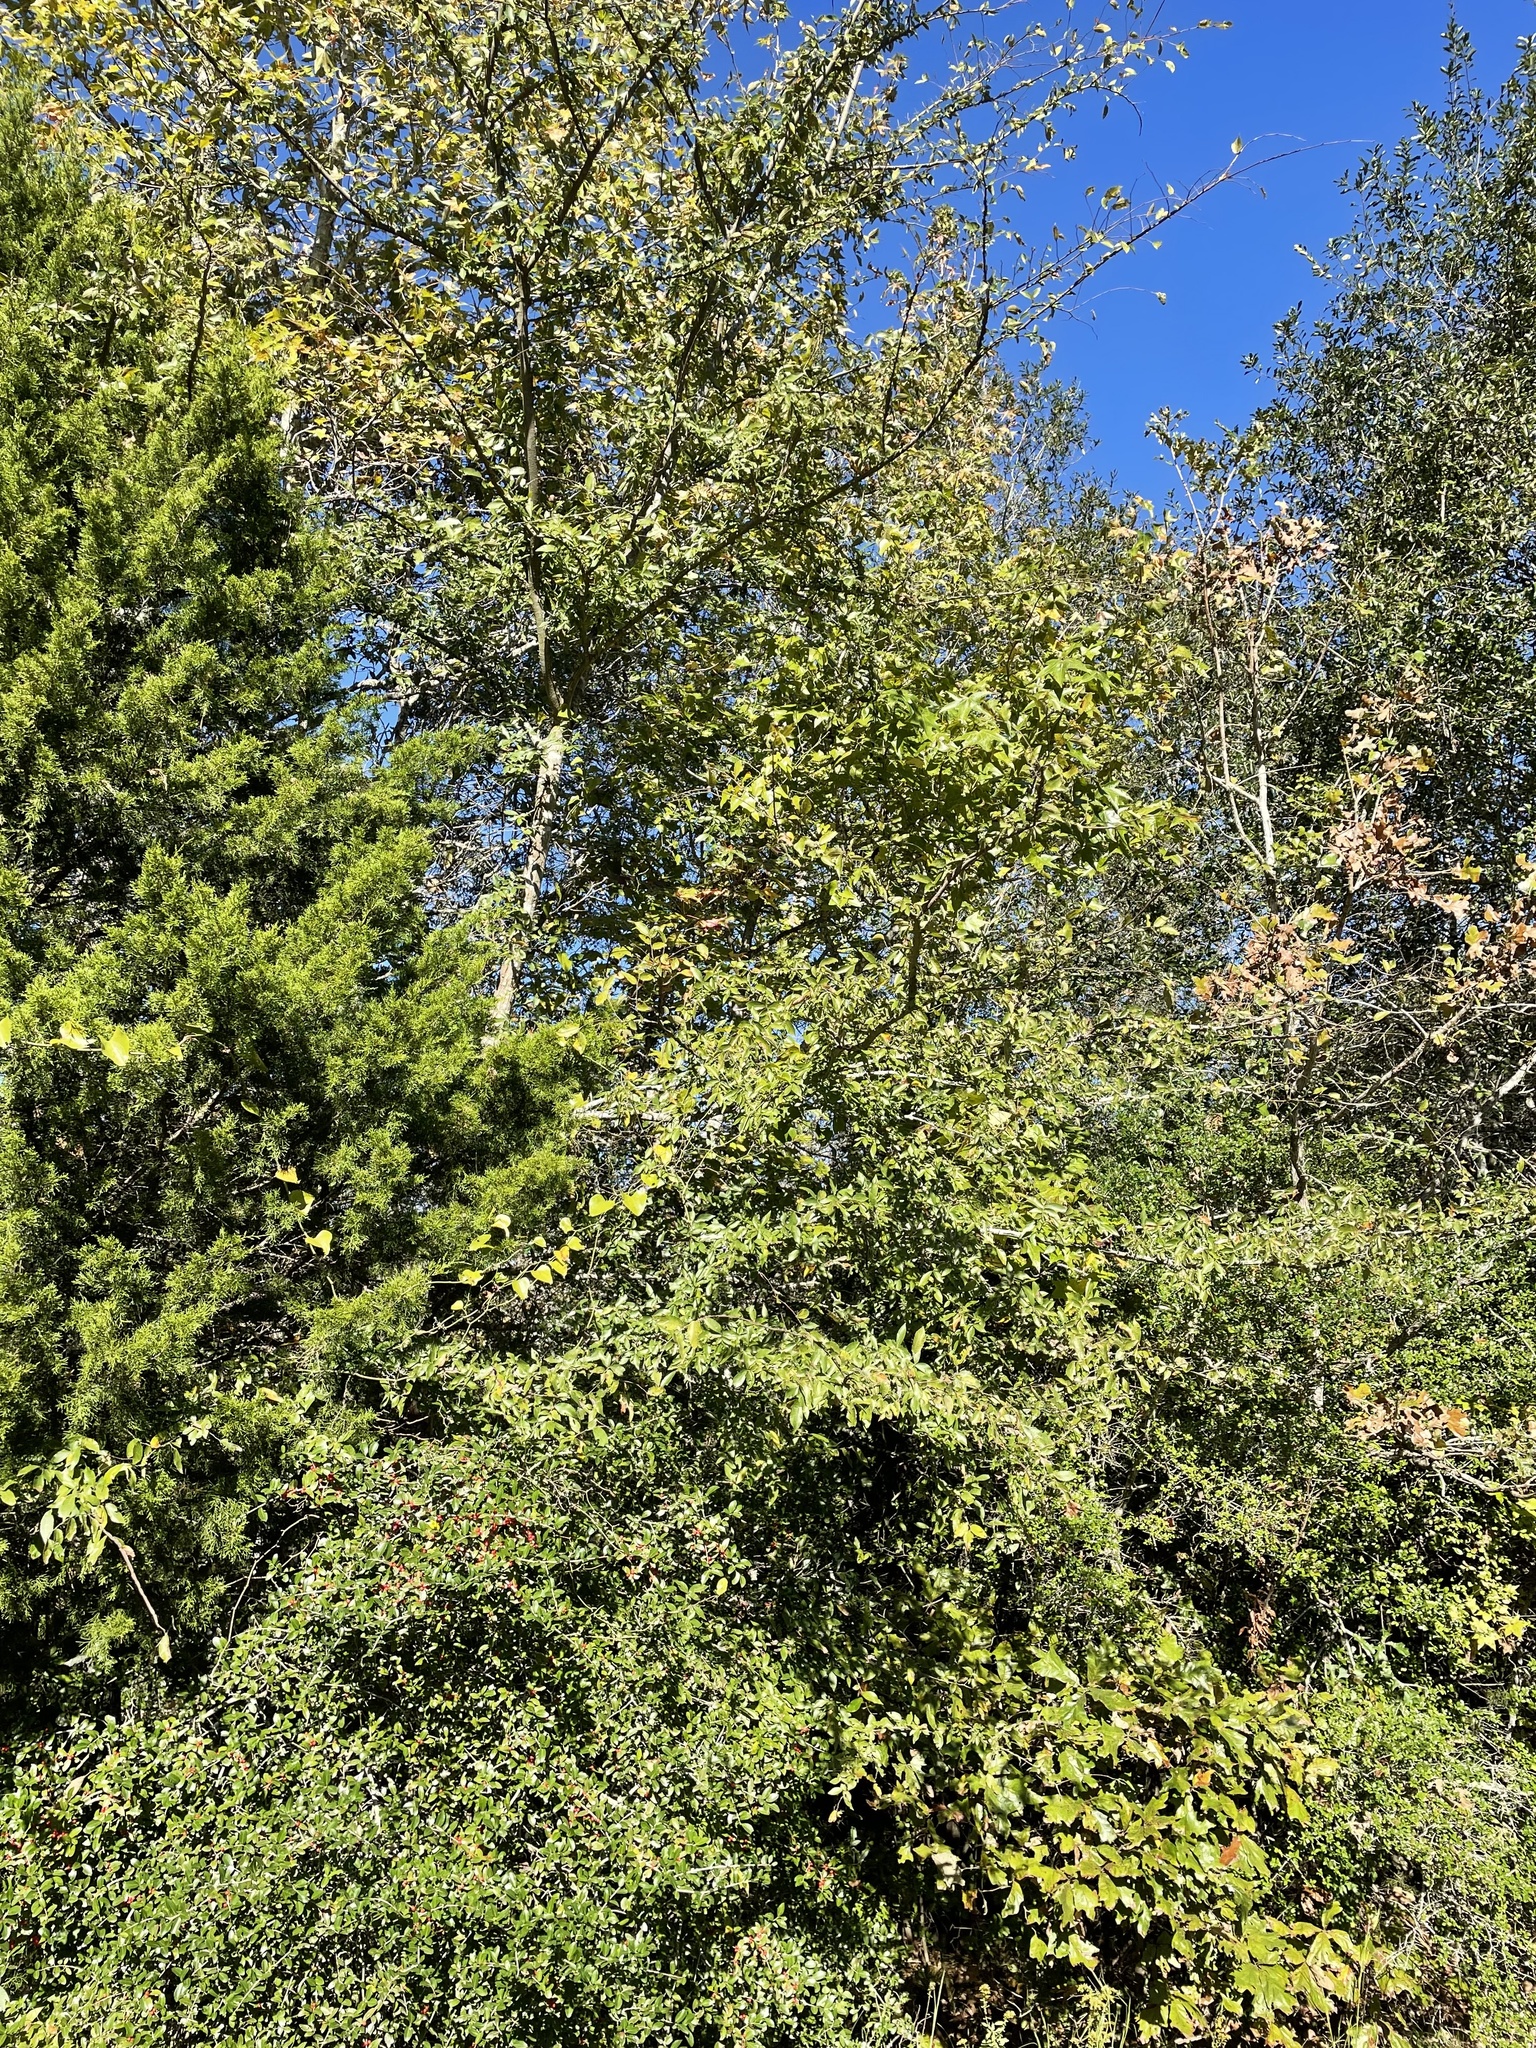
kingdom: Plantae
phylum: Tracheophyta
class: Magnoliopsida
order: Rosales
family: Ulmaceae
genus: Ulmus
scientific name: Ulmus alata
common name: Winged elm
